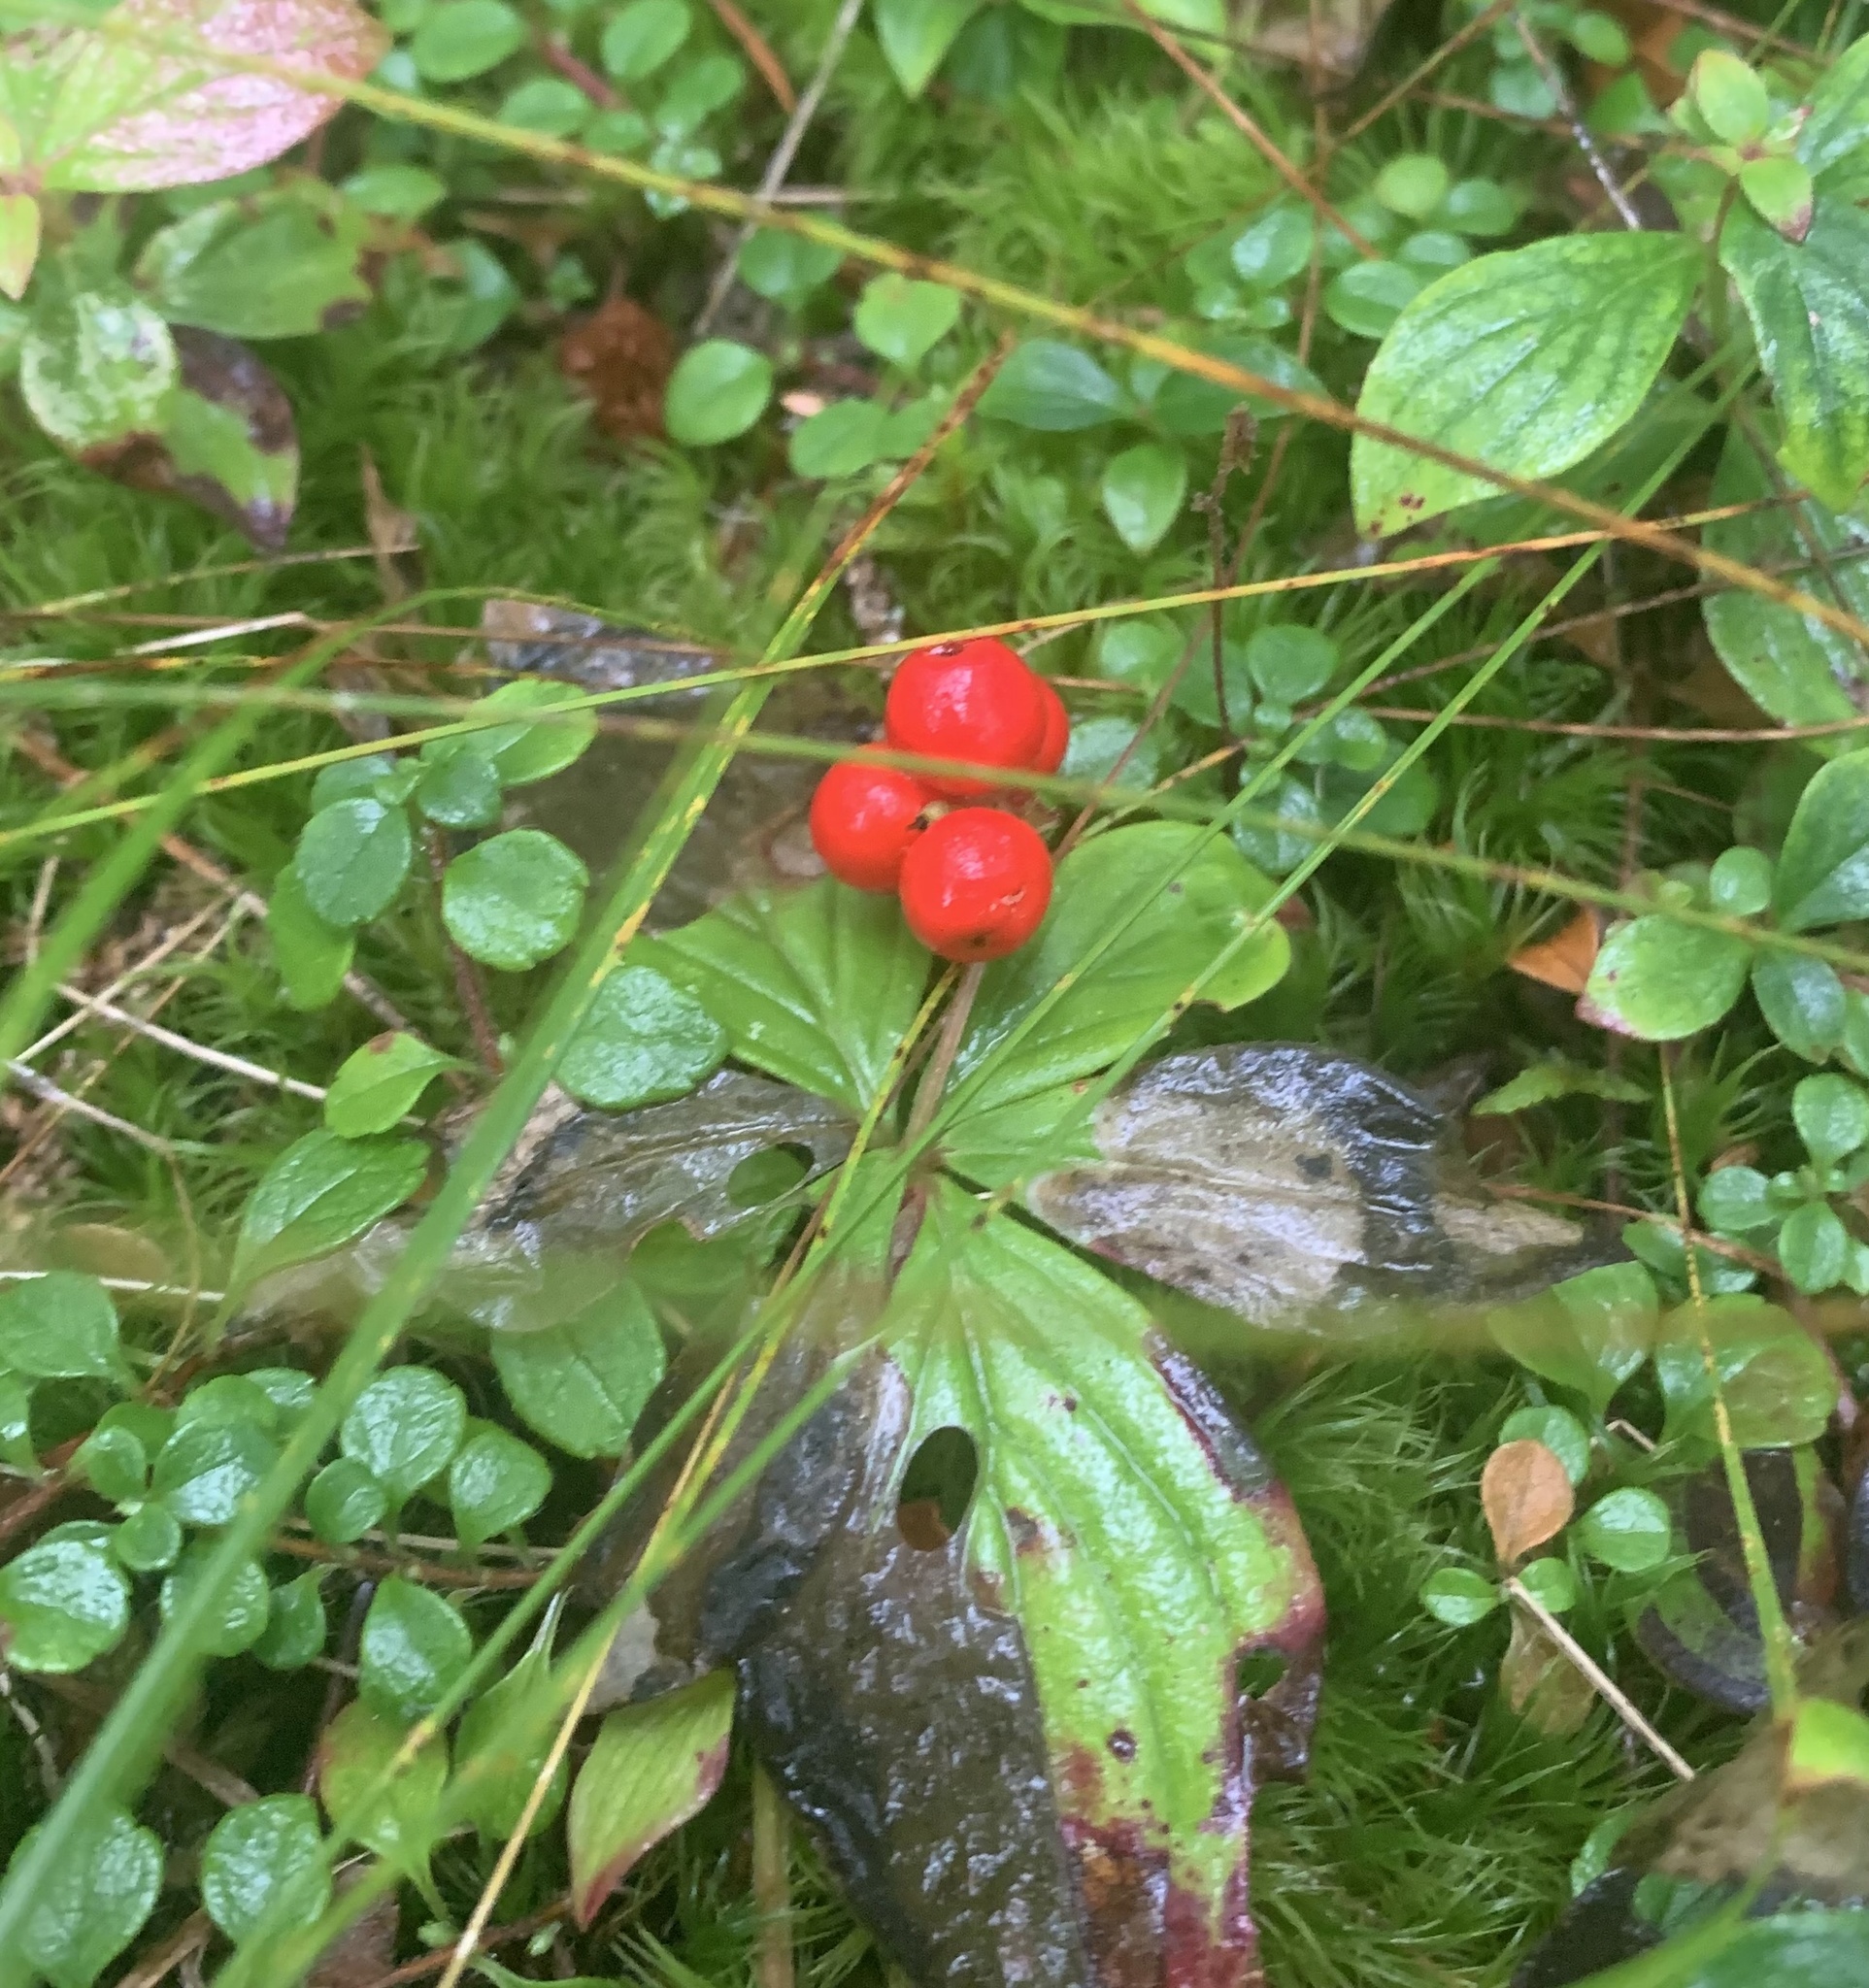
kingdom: Plantae
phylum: Tracheophyta
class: Magnoliopsida
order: Cornales
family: Cornaceae
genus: Cornus
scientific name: Cornus canadensis
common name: Creeping dogwood
